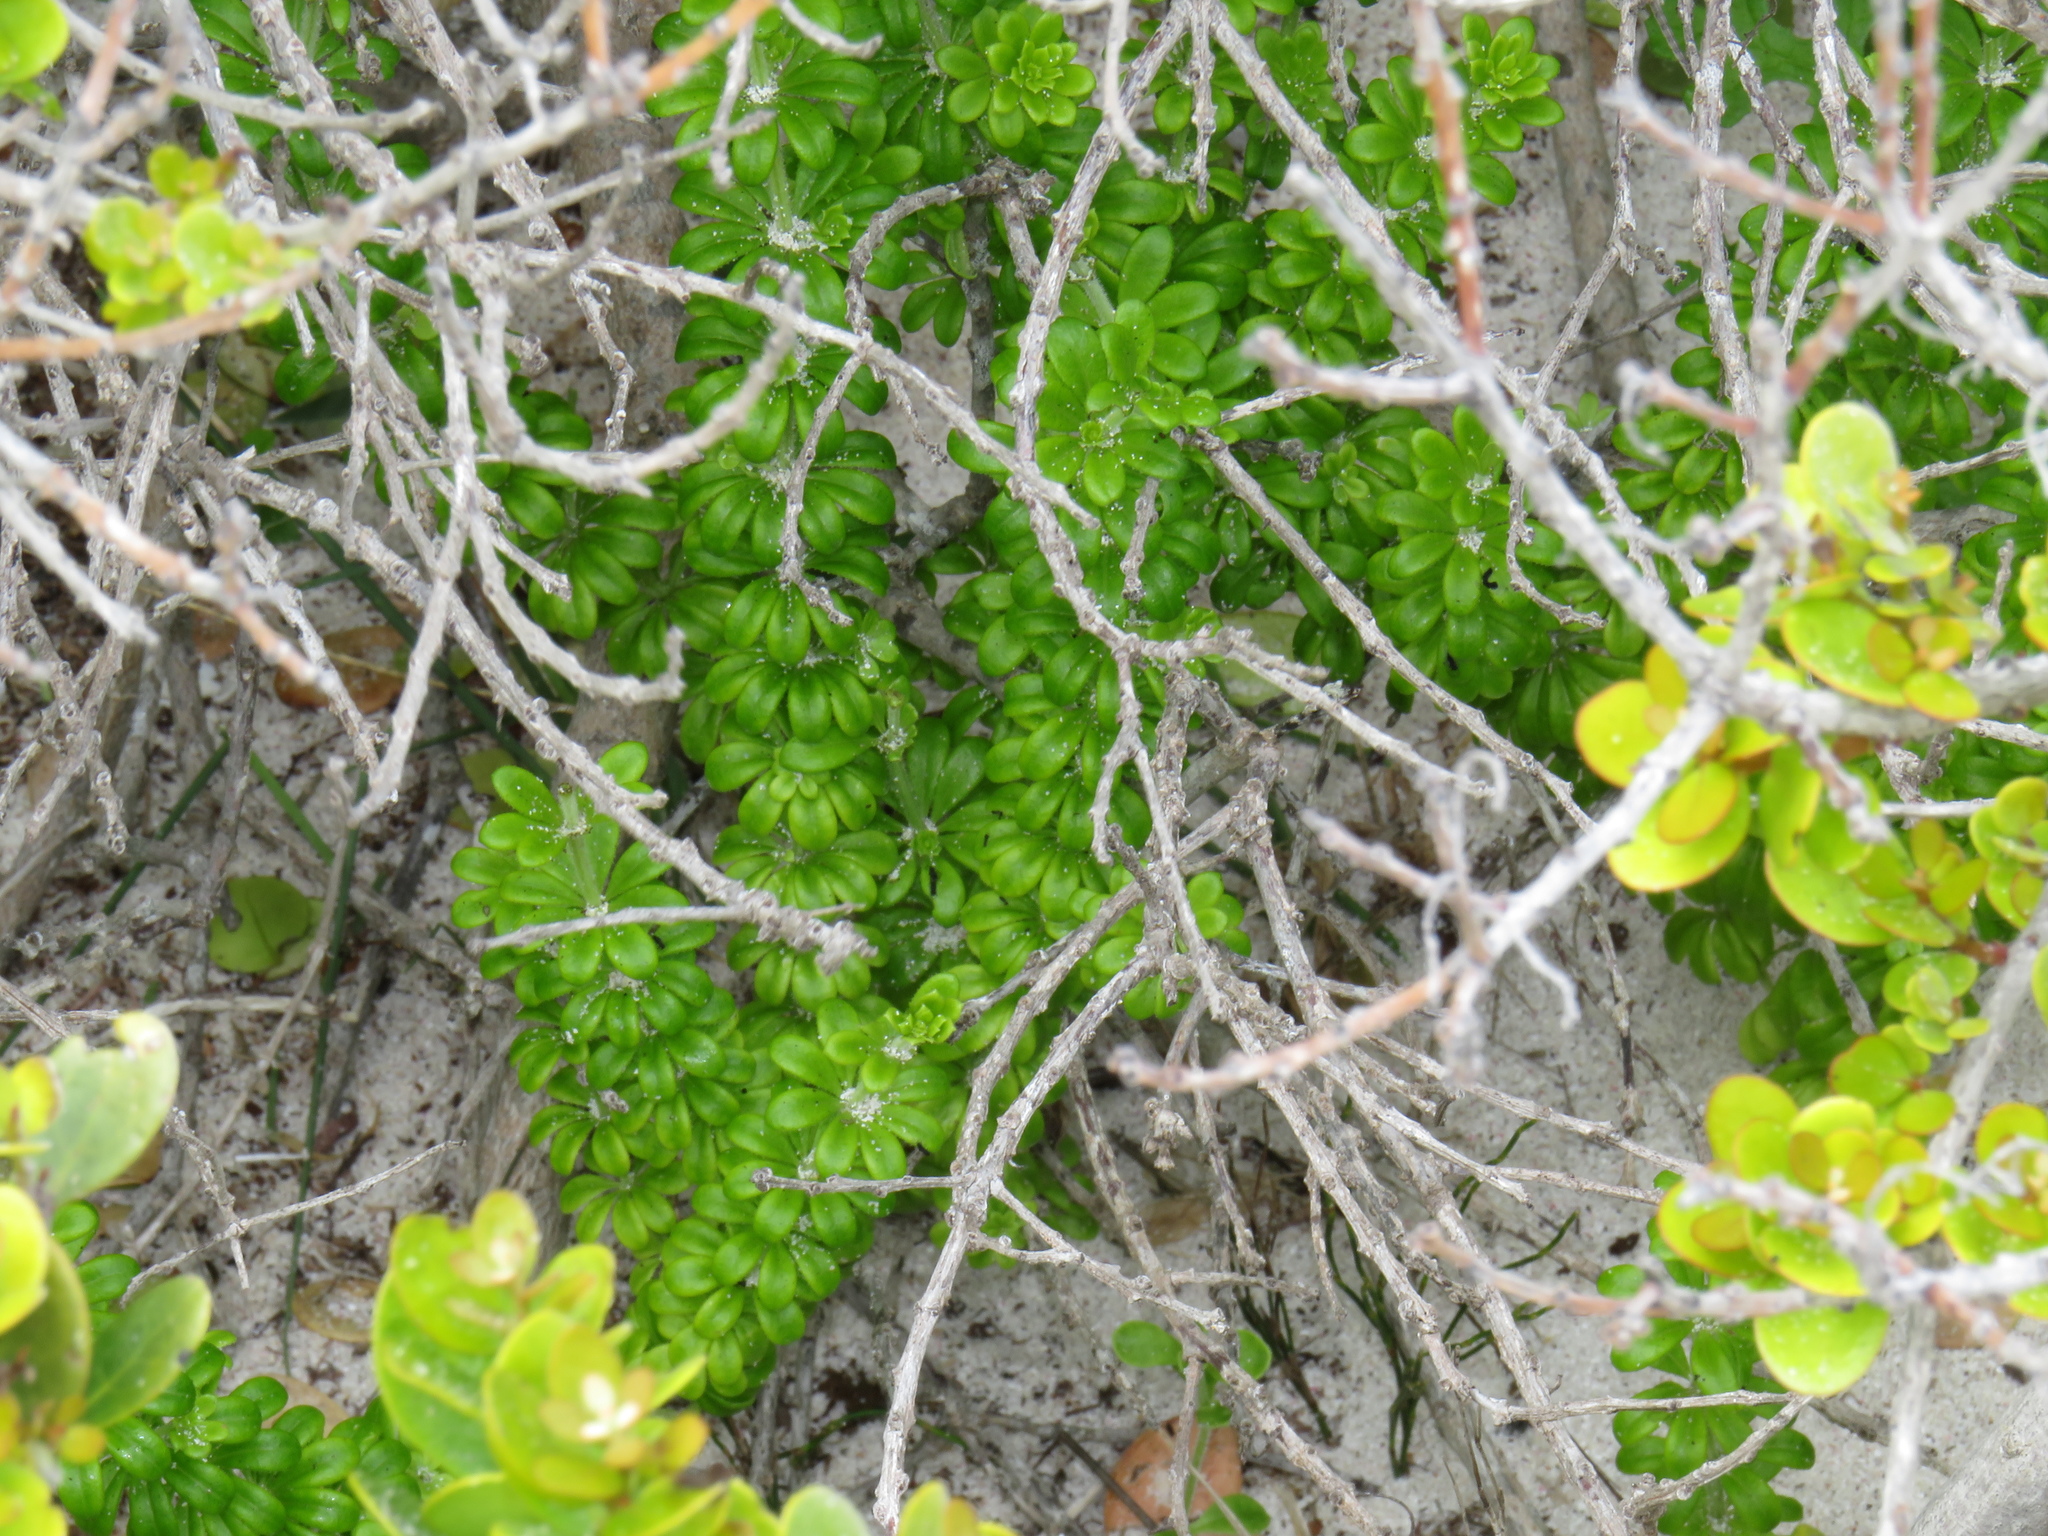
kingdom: Plantae
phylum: Tracheophyta
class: Magnoliopsida
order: Gentianales
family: Rubiaceae
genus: Galium
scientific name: Galium tomentosum
